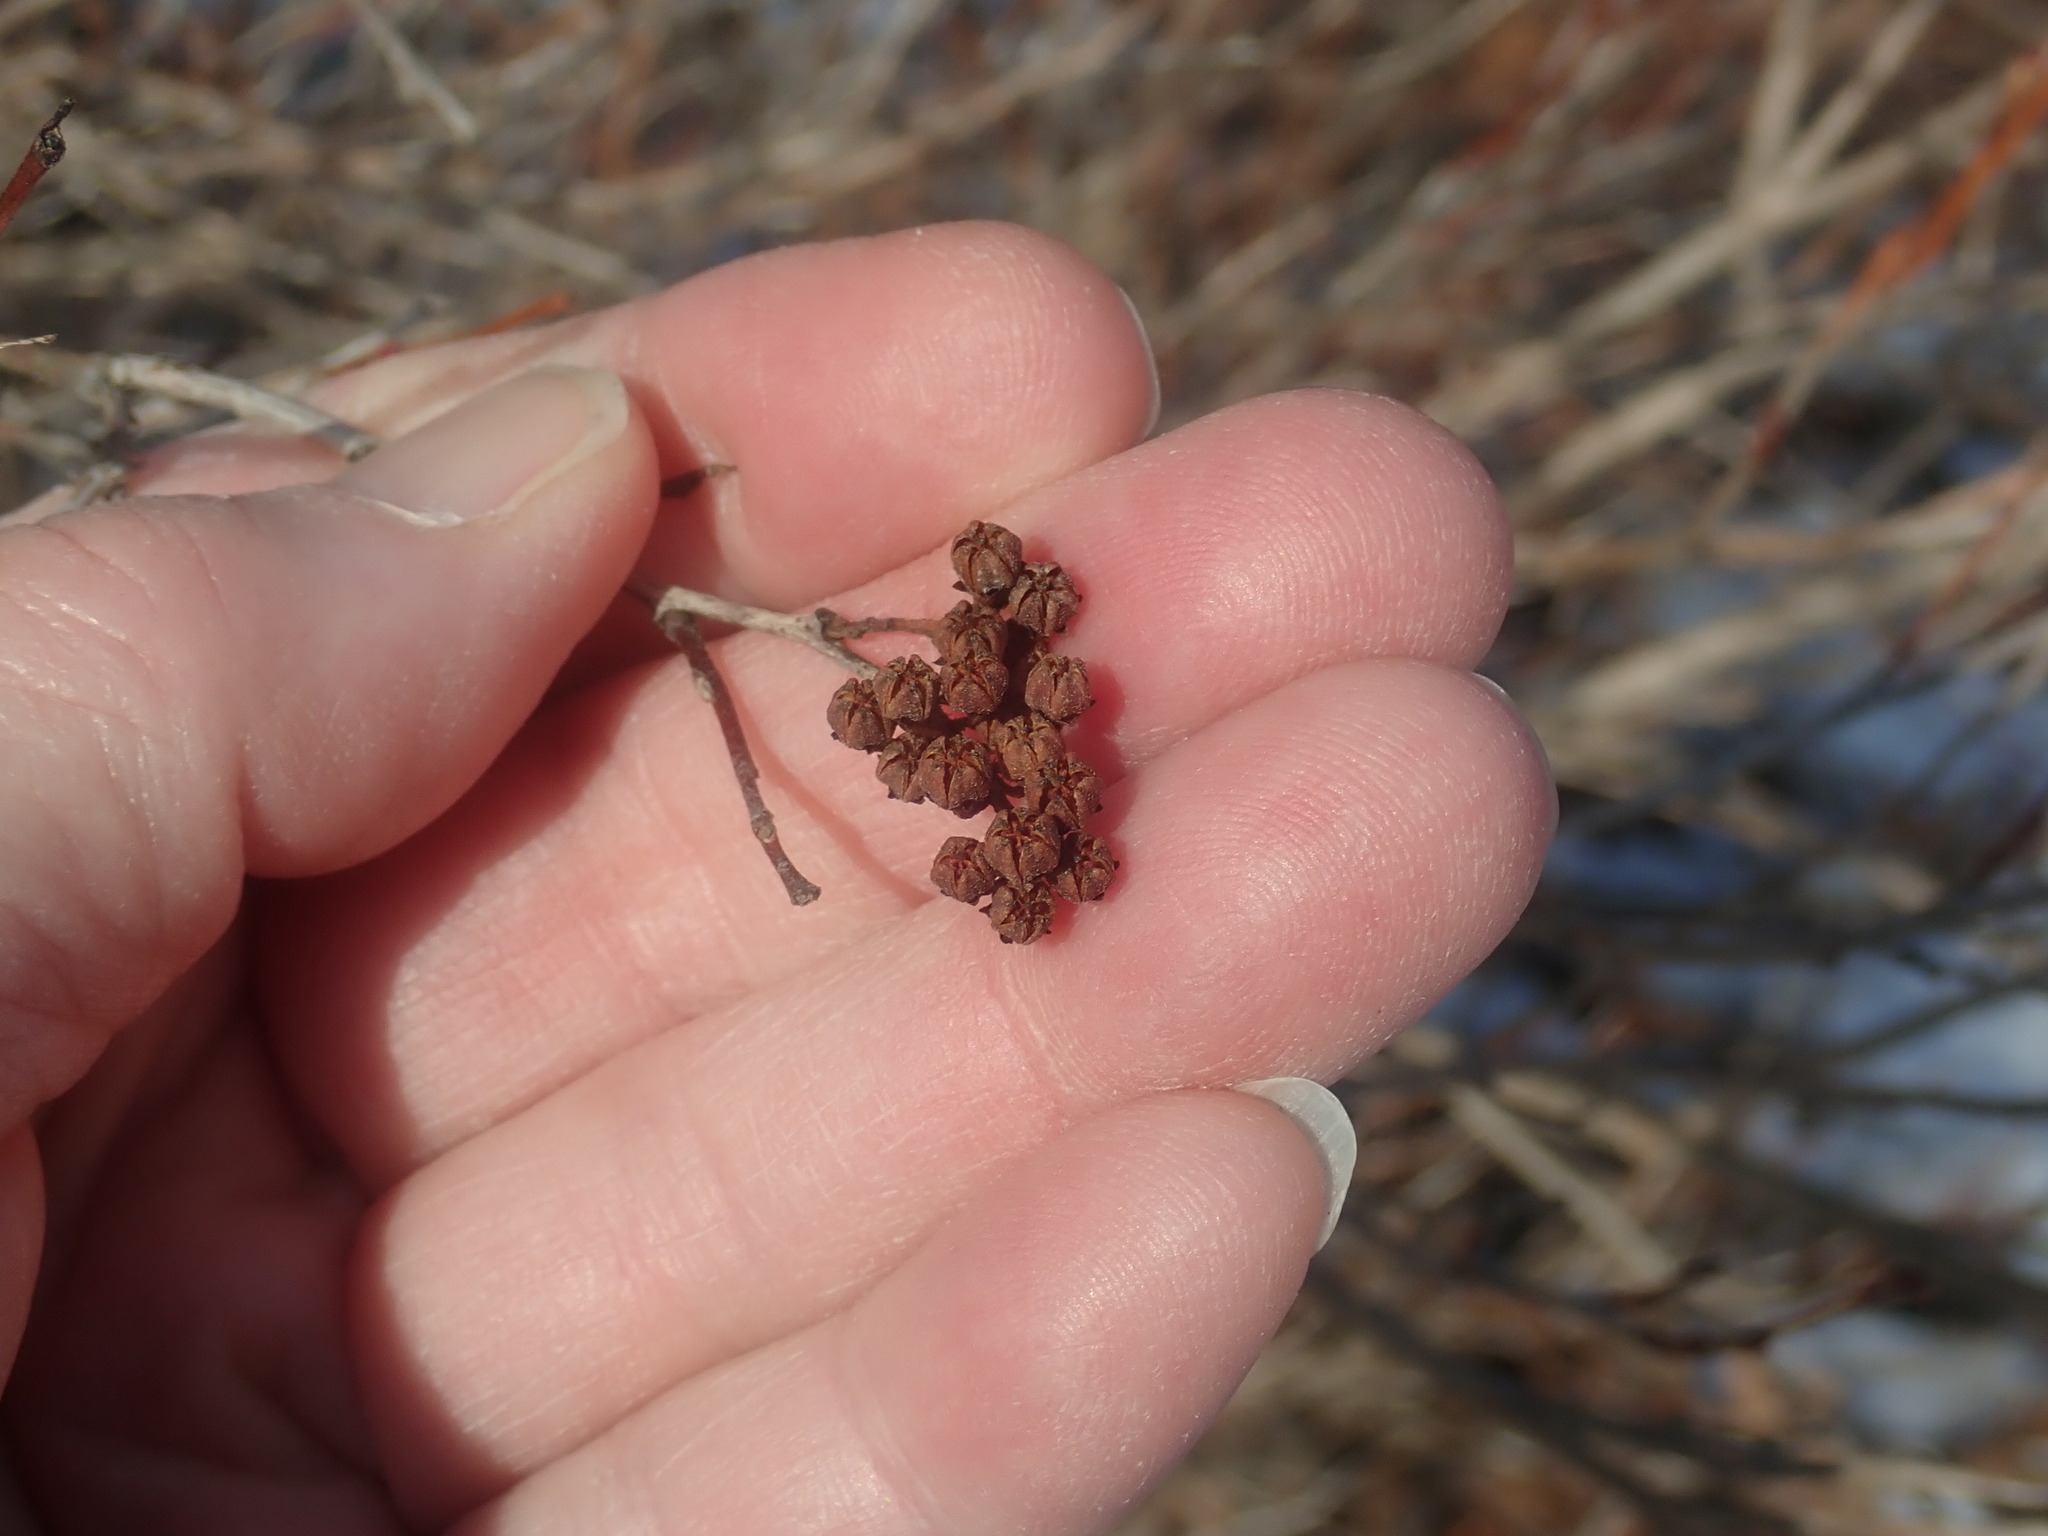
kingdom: Plantae
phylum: Tracheophyta
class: Magnoliopsida
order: Ericales
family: Ericaceae
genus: Lyonia
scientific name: Lyonia ligustrina
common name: Maleberry
